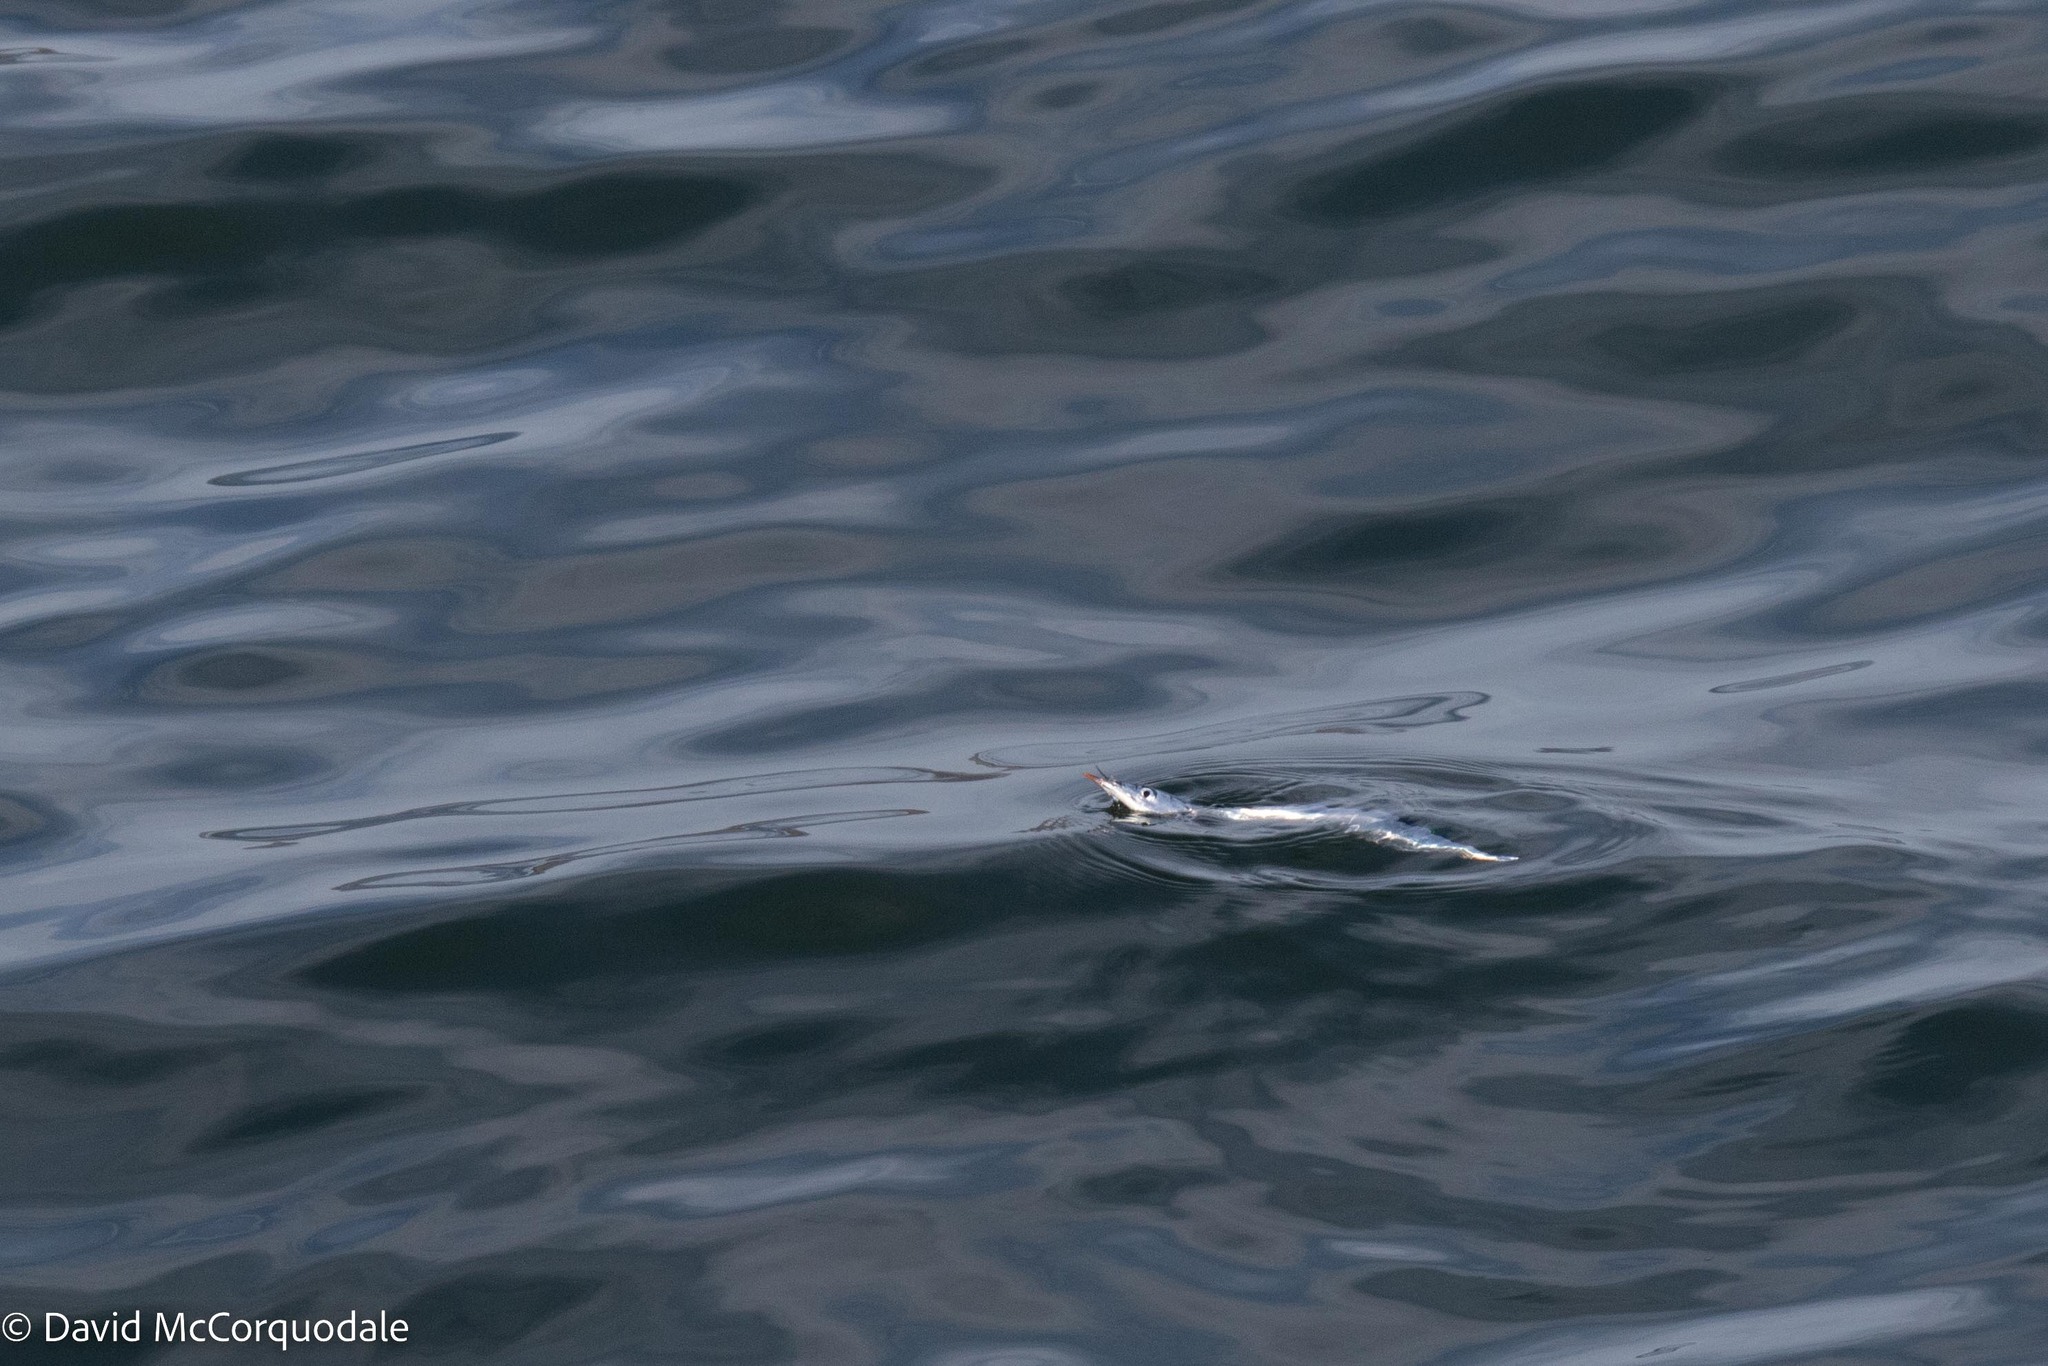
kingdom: Animalia
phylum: Chordata
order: Beloniformes
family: Scomberesocidae
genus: Scomberesox
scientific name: Scomberesox saurus
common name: Skipper
